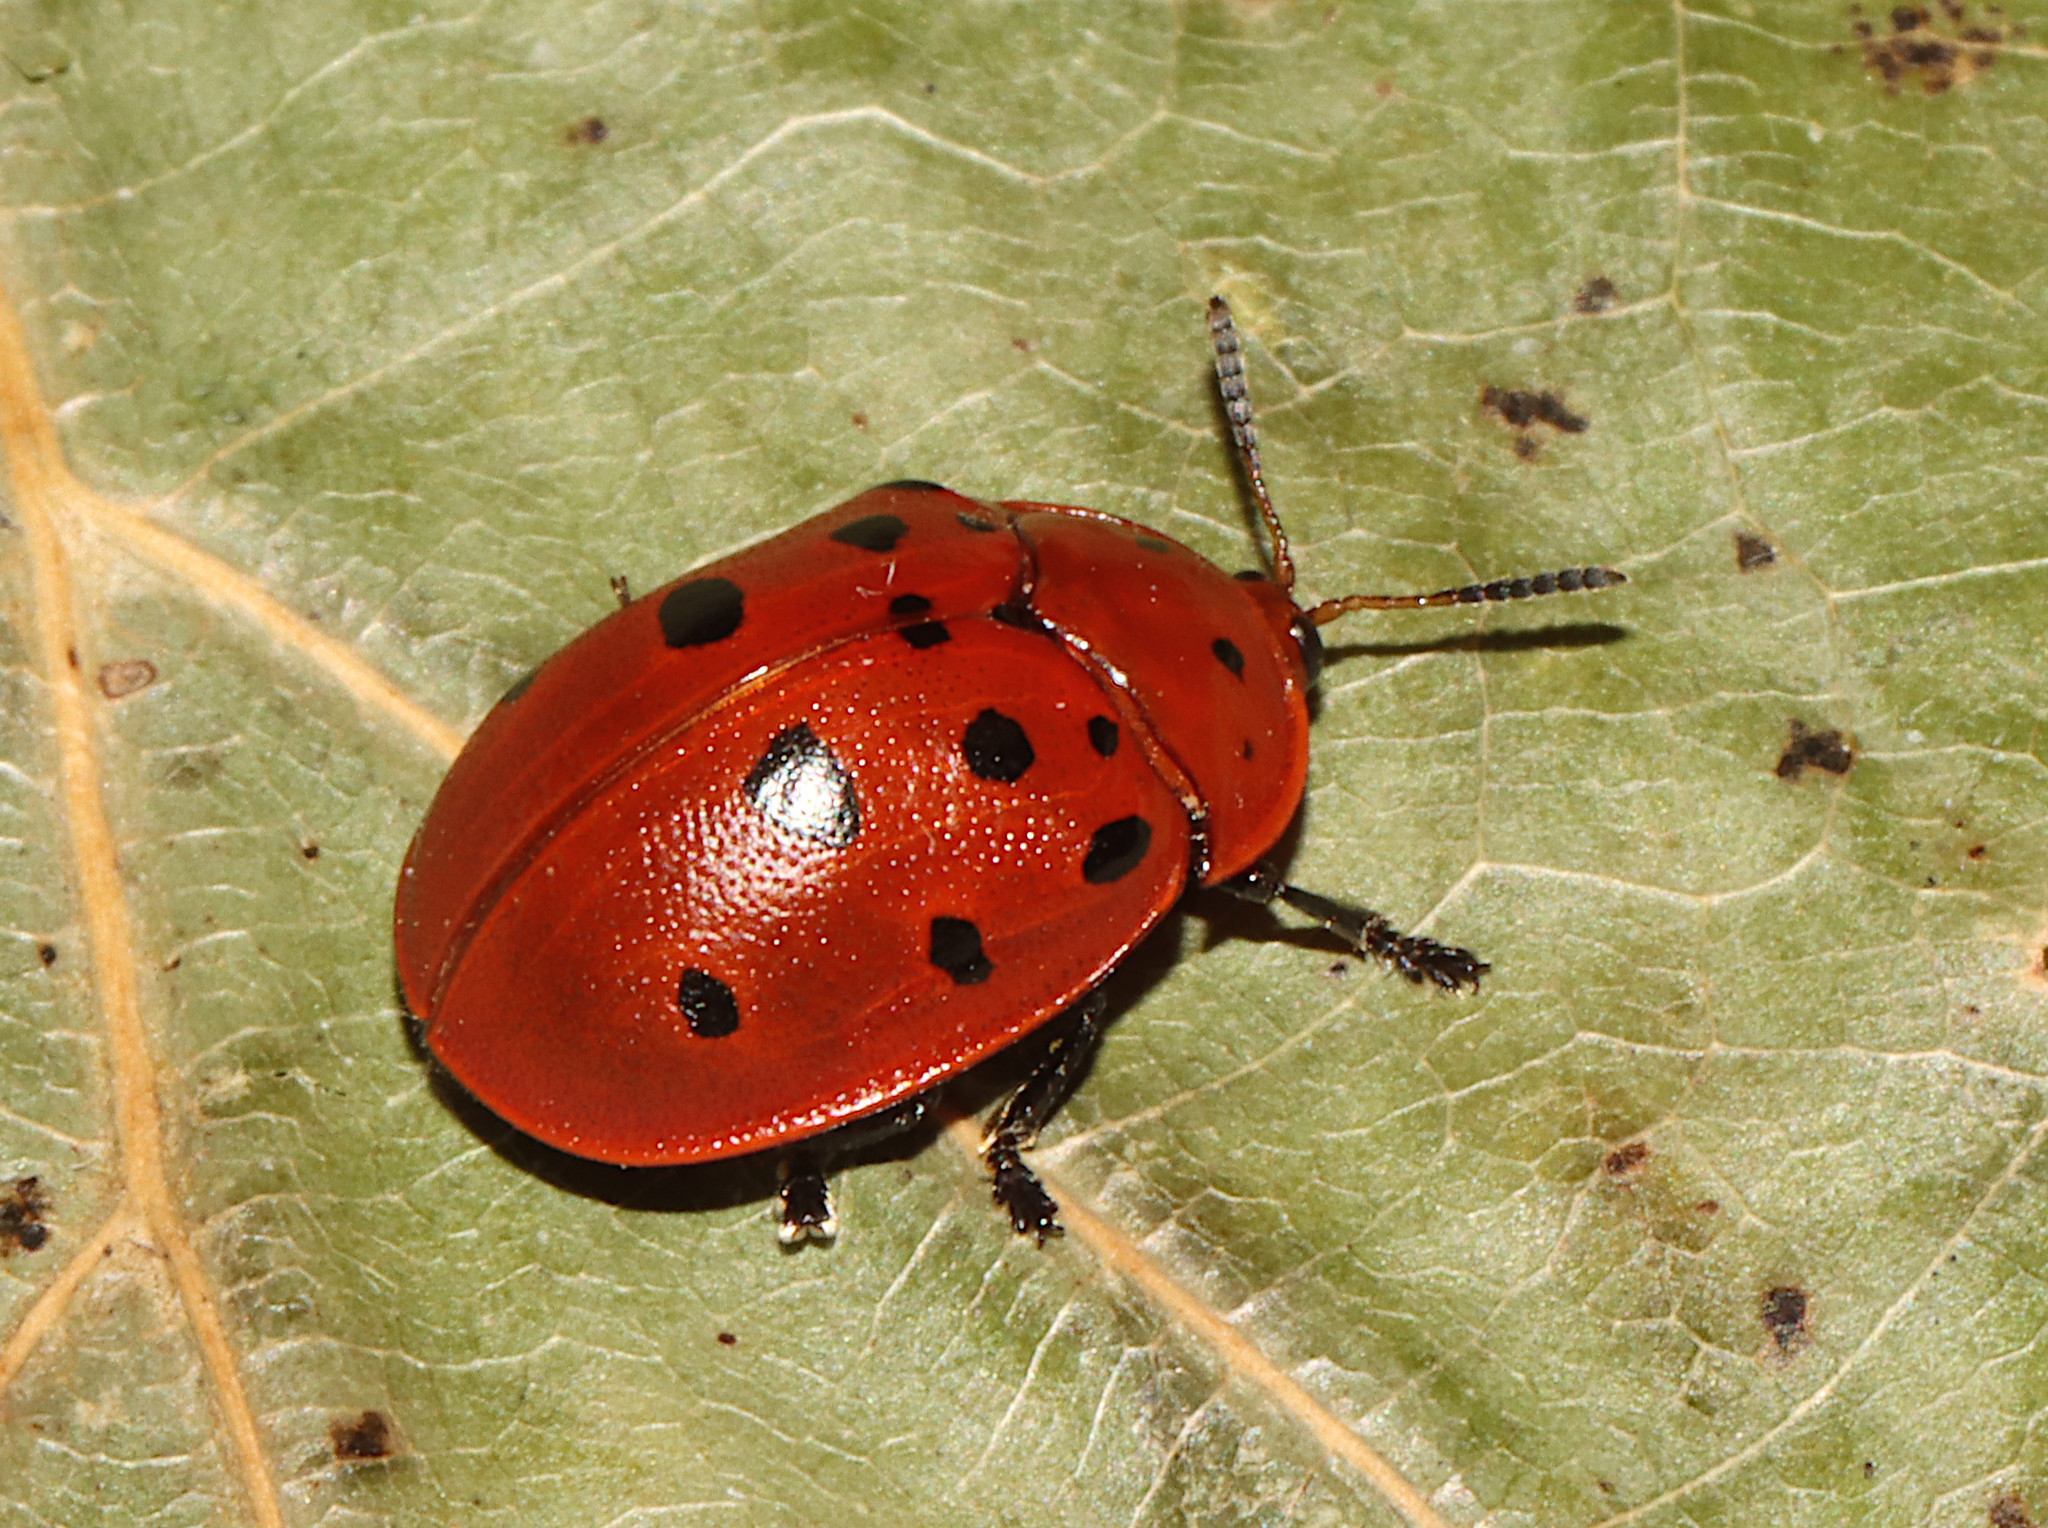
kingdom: Animalia
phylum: Arthropoda
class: Insecta
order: Coleoptera
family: Chrysomelidae
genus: Chelymorpha
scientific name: Chelymorpha cassidea
